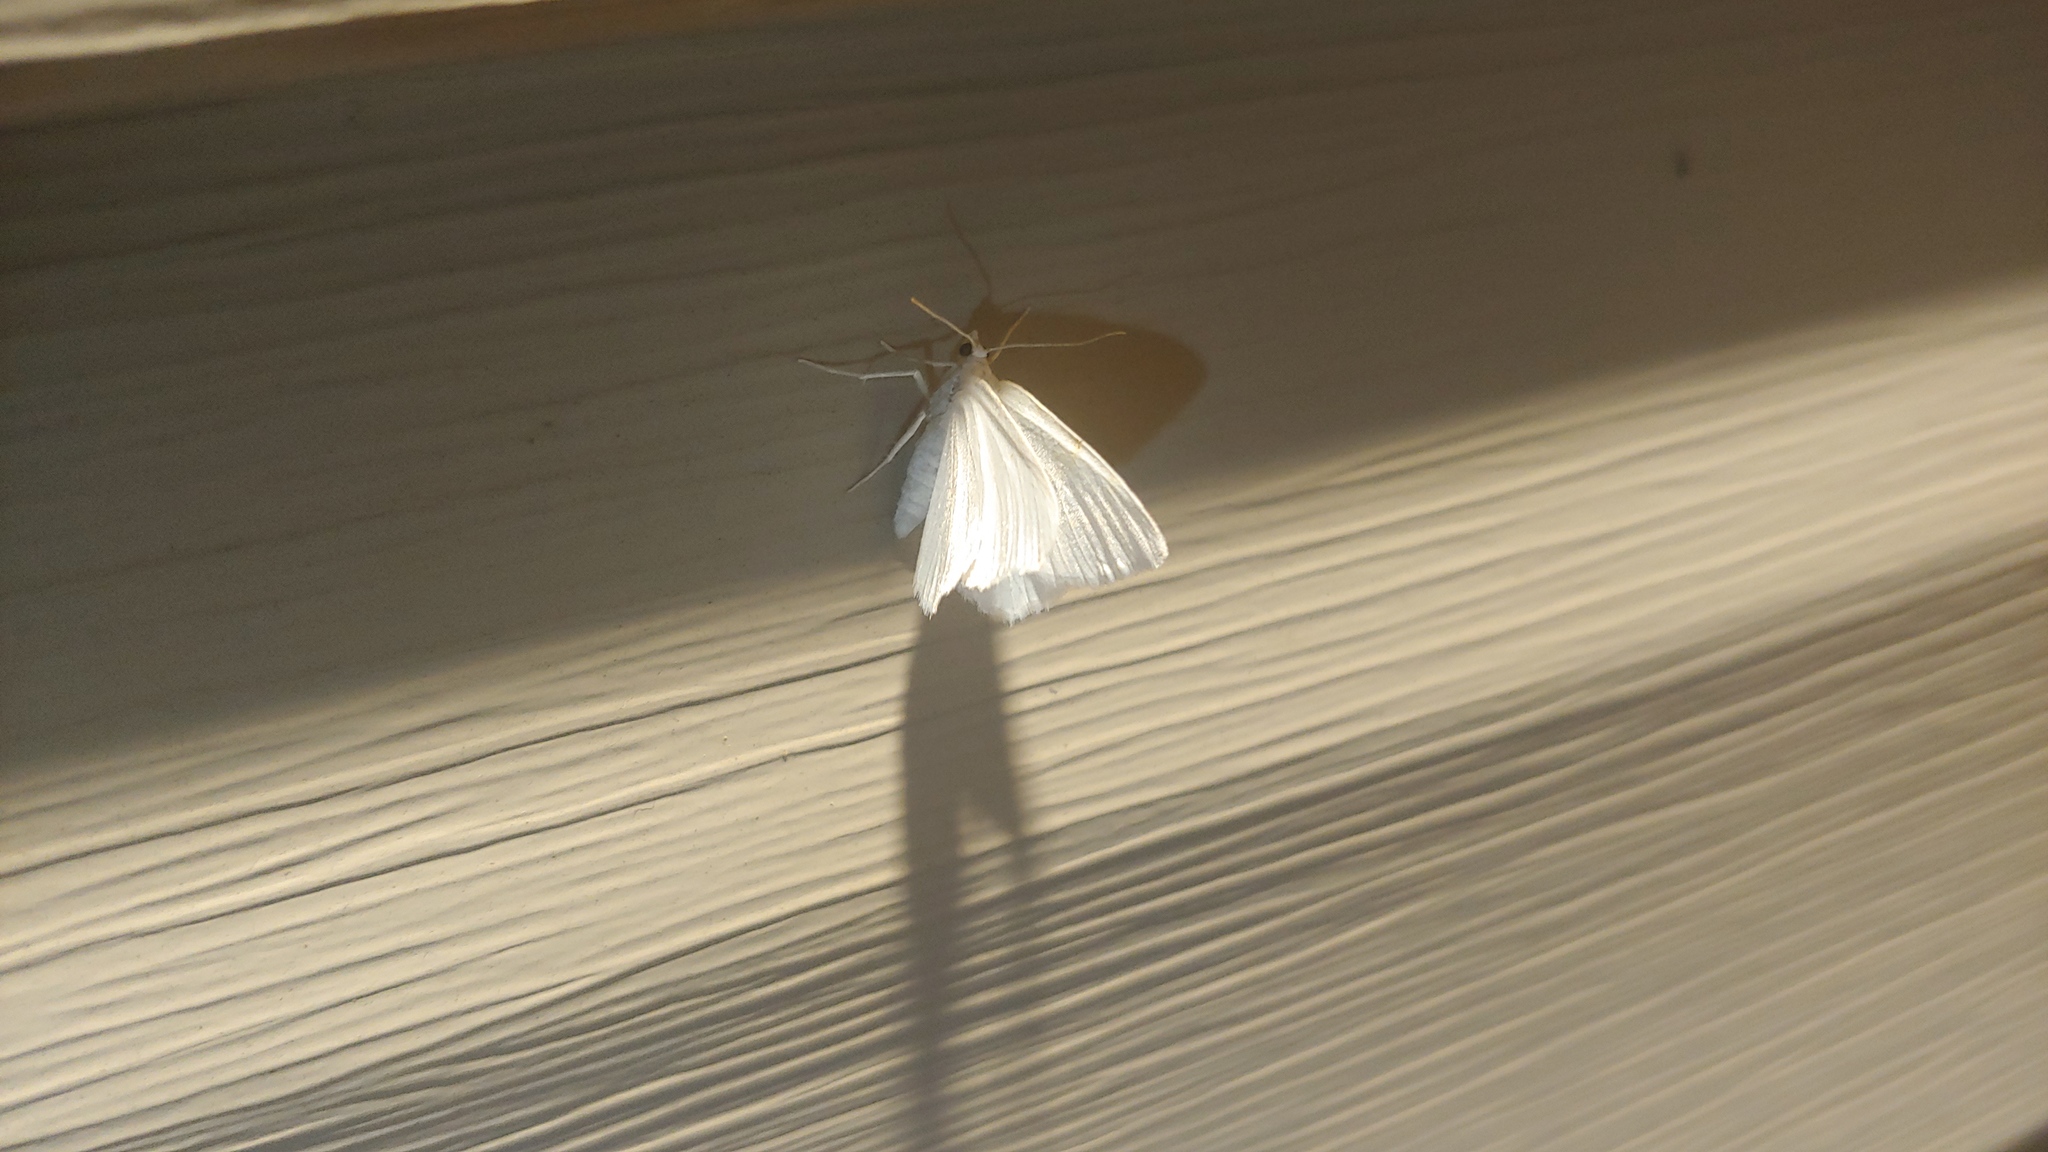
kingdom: Animalia
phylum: Arthropoda
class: Insecta
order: Lepidoptera
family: Geometridae
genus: Macaria
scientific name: Macaria pustularia
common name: Lesser maple spanworm moth
